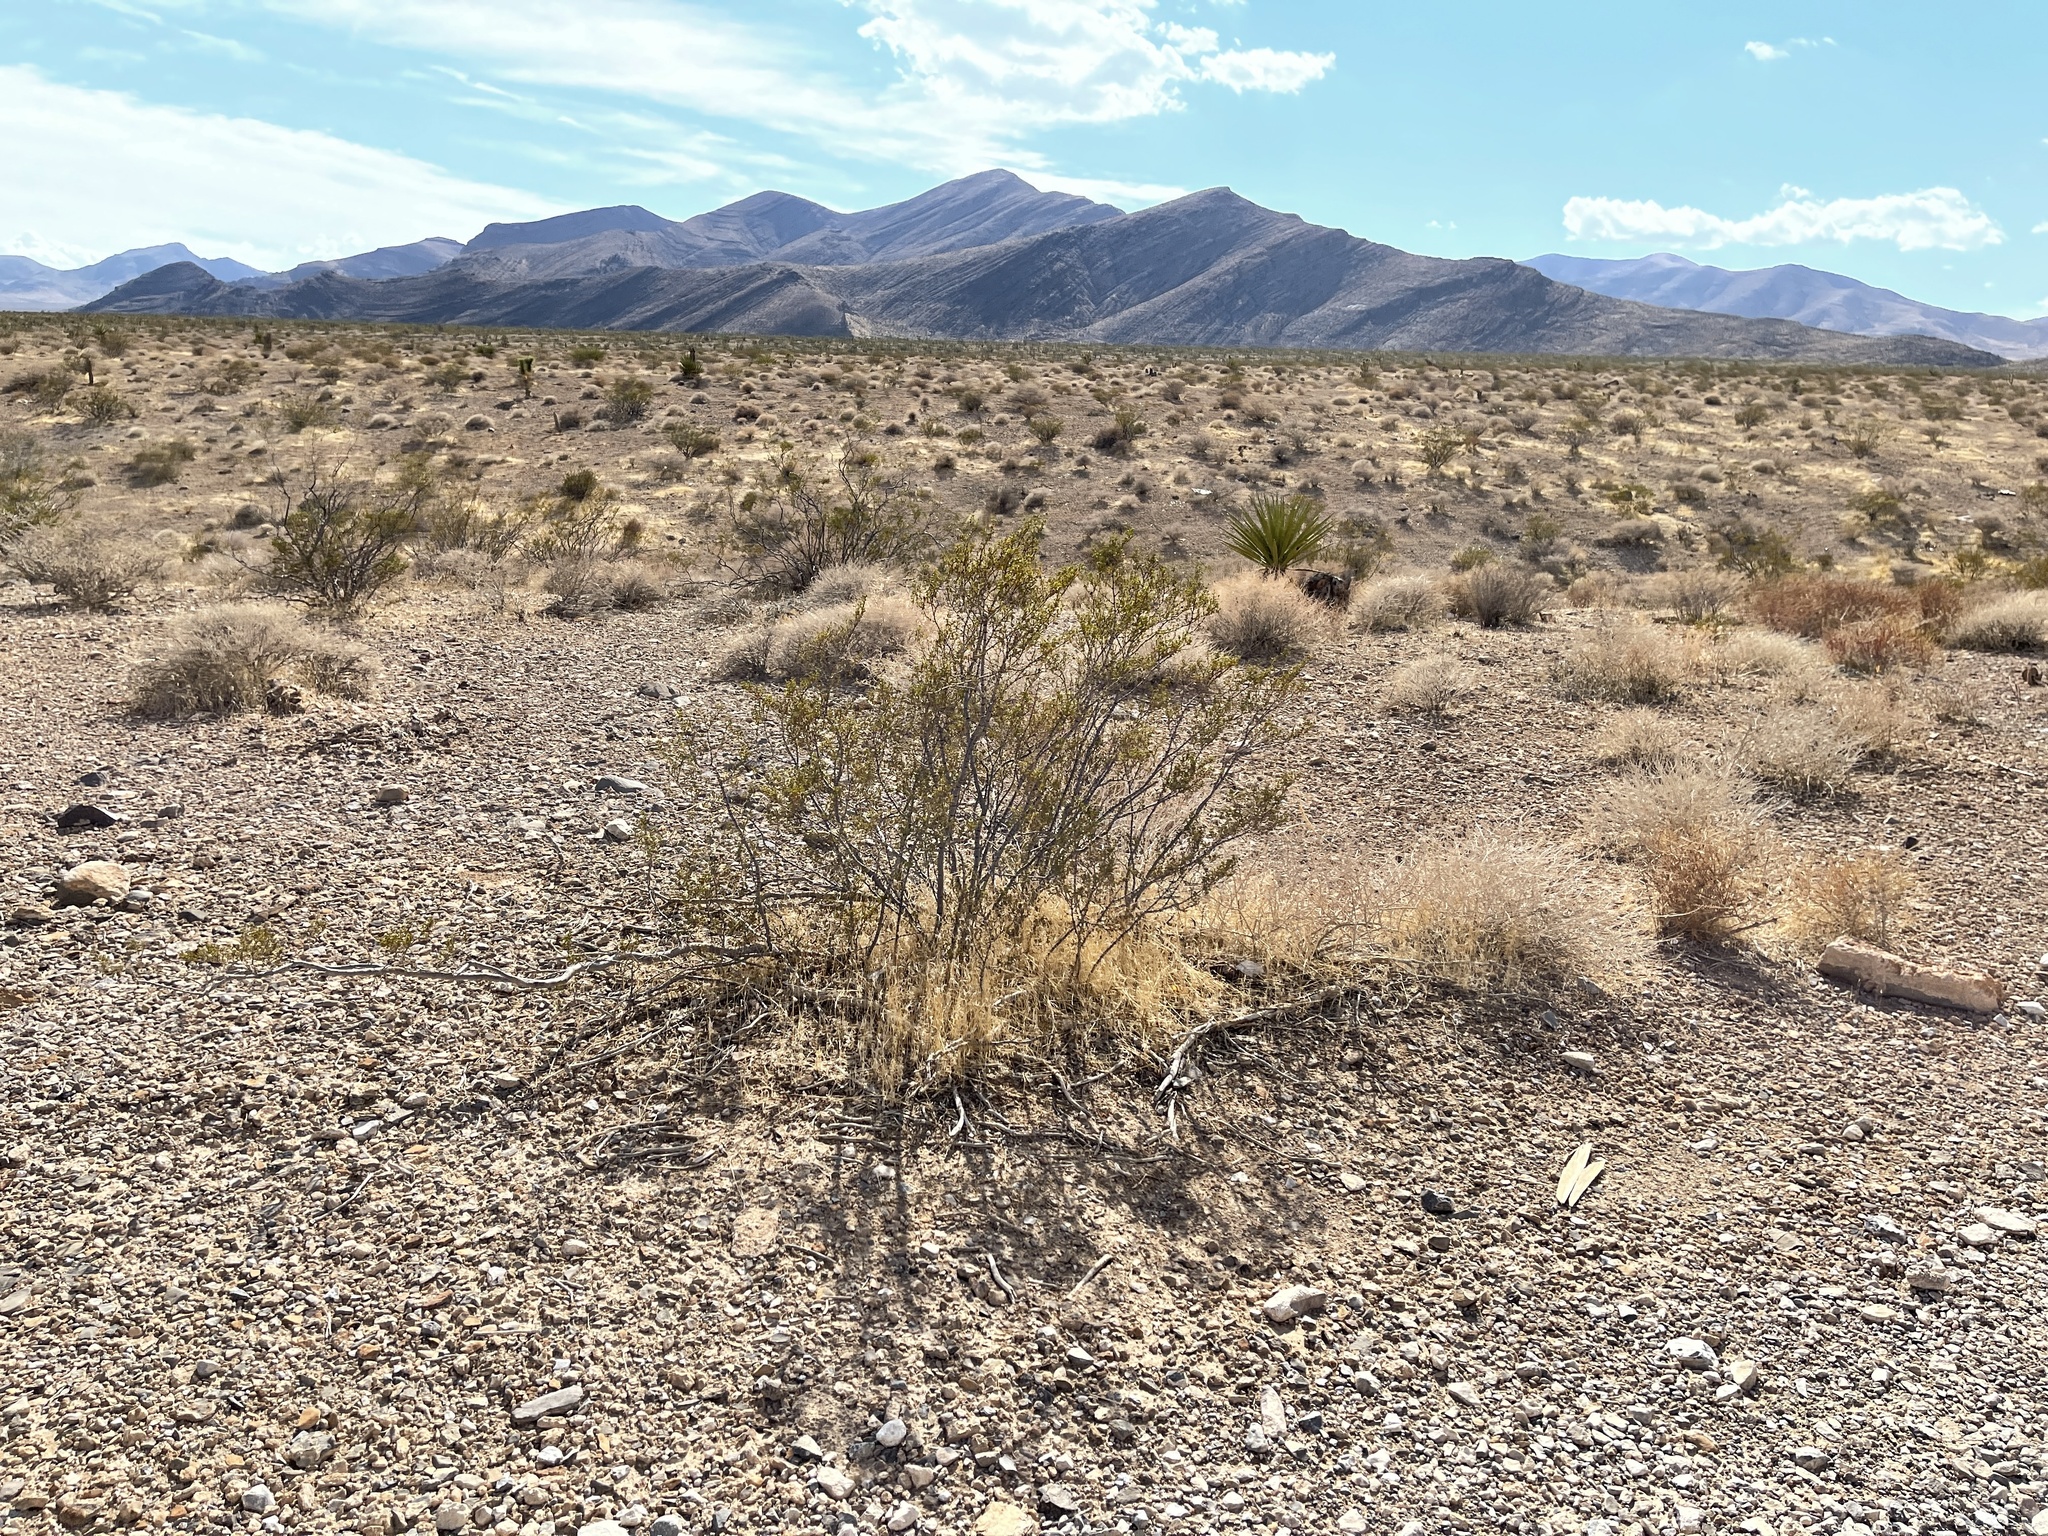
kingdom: Plantae
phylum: Tracheophyta
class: Magnoliopsida
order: Zygophyllales
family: Zygophyllaceae
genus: Larrea
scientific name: Larrea tridentata
